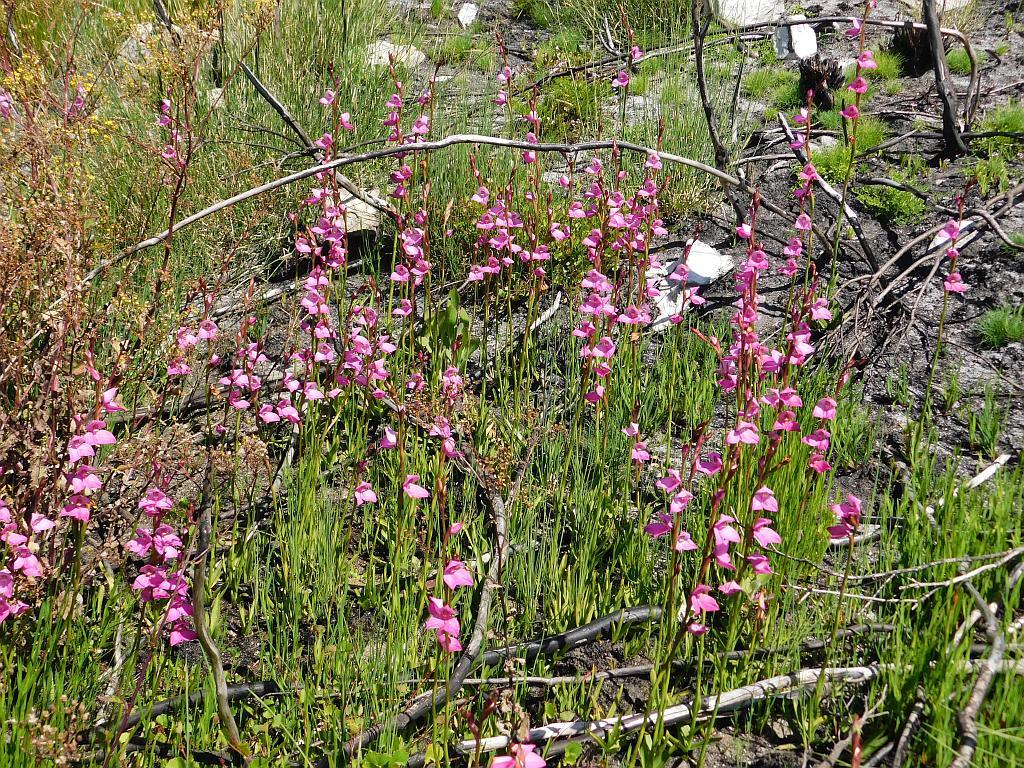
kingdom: Plantae
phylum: Tracheophyta
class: Liliopsida
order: Asparagales
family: Orchidaceae
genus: Disa
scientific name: Disa racemosa
